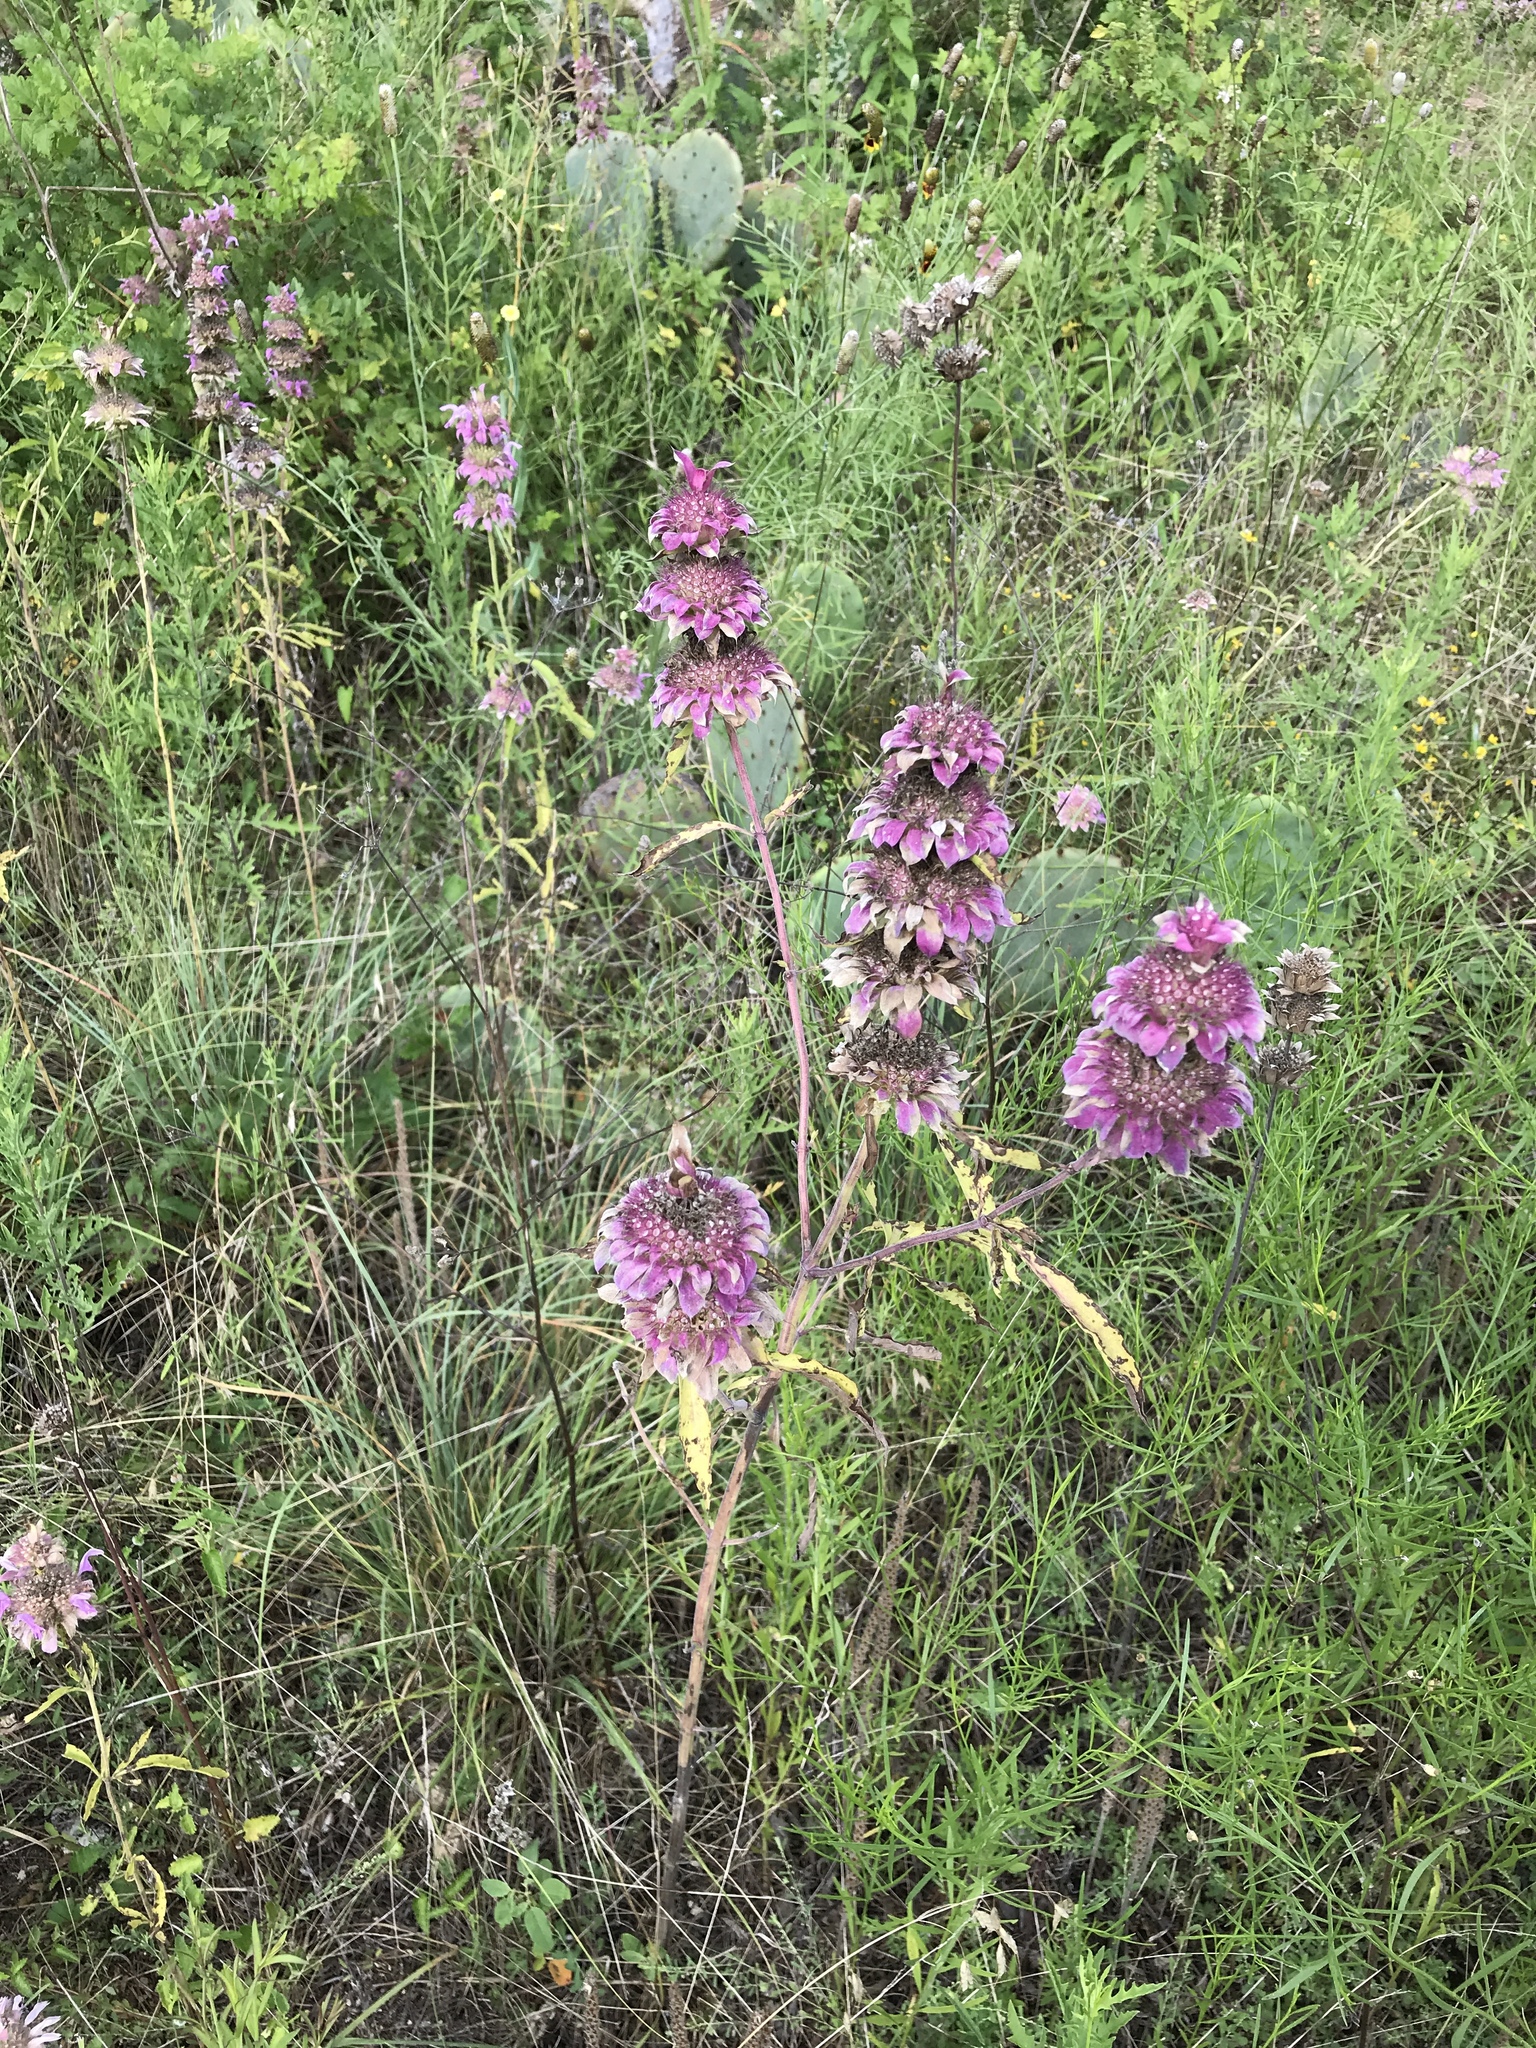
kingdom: Plantae
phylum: Tracheophyta
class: Magnoliopsida
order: Lamiales
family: Lamiaceae
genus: Monarda
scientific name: Monarda citriodora
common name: Lemon beebalm
